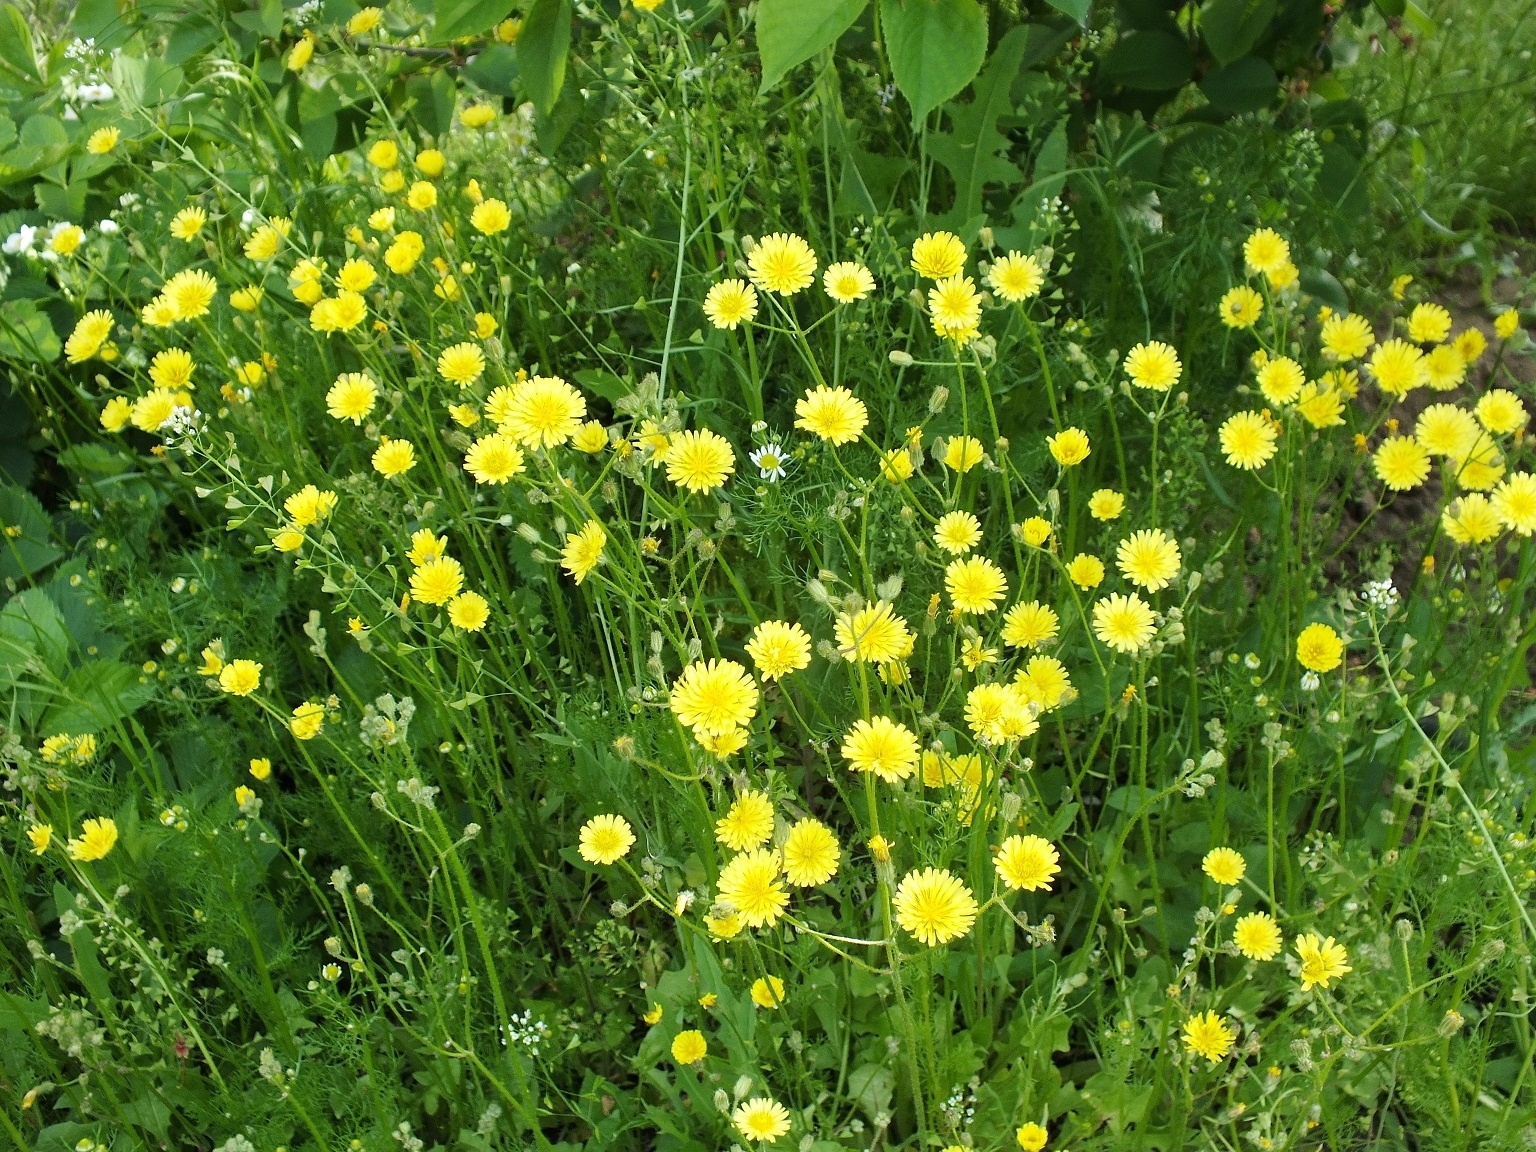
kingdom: Plantae
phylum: Tracheophyta
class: Magnoliopsida
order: Asterales
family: Asteraceae
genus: Crepis
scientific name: Crepis sancta
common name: Hawk's-beard
